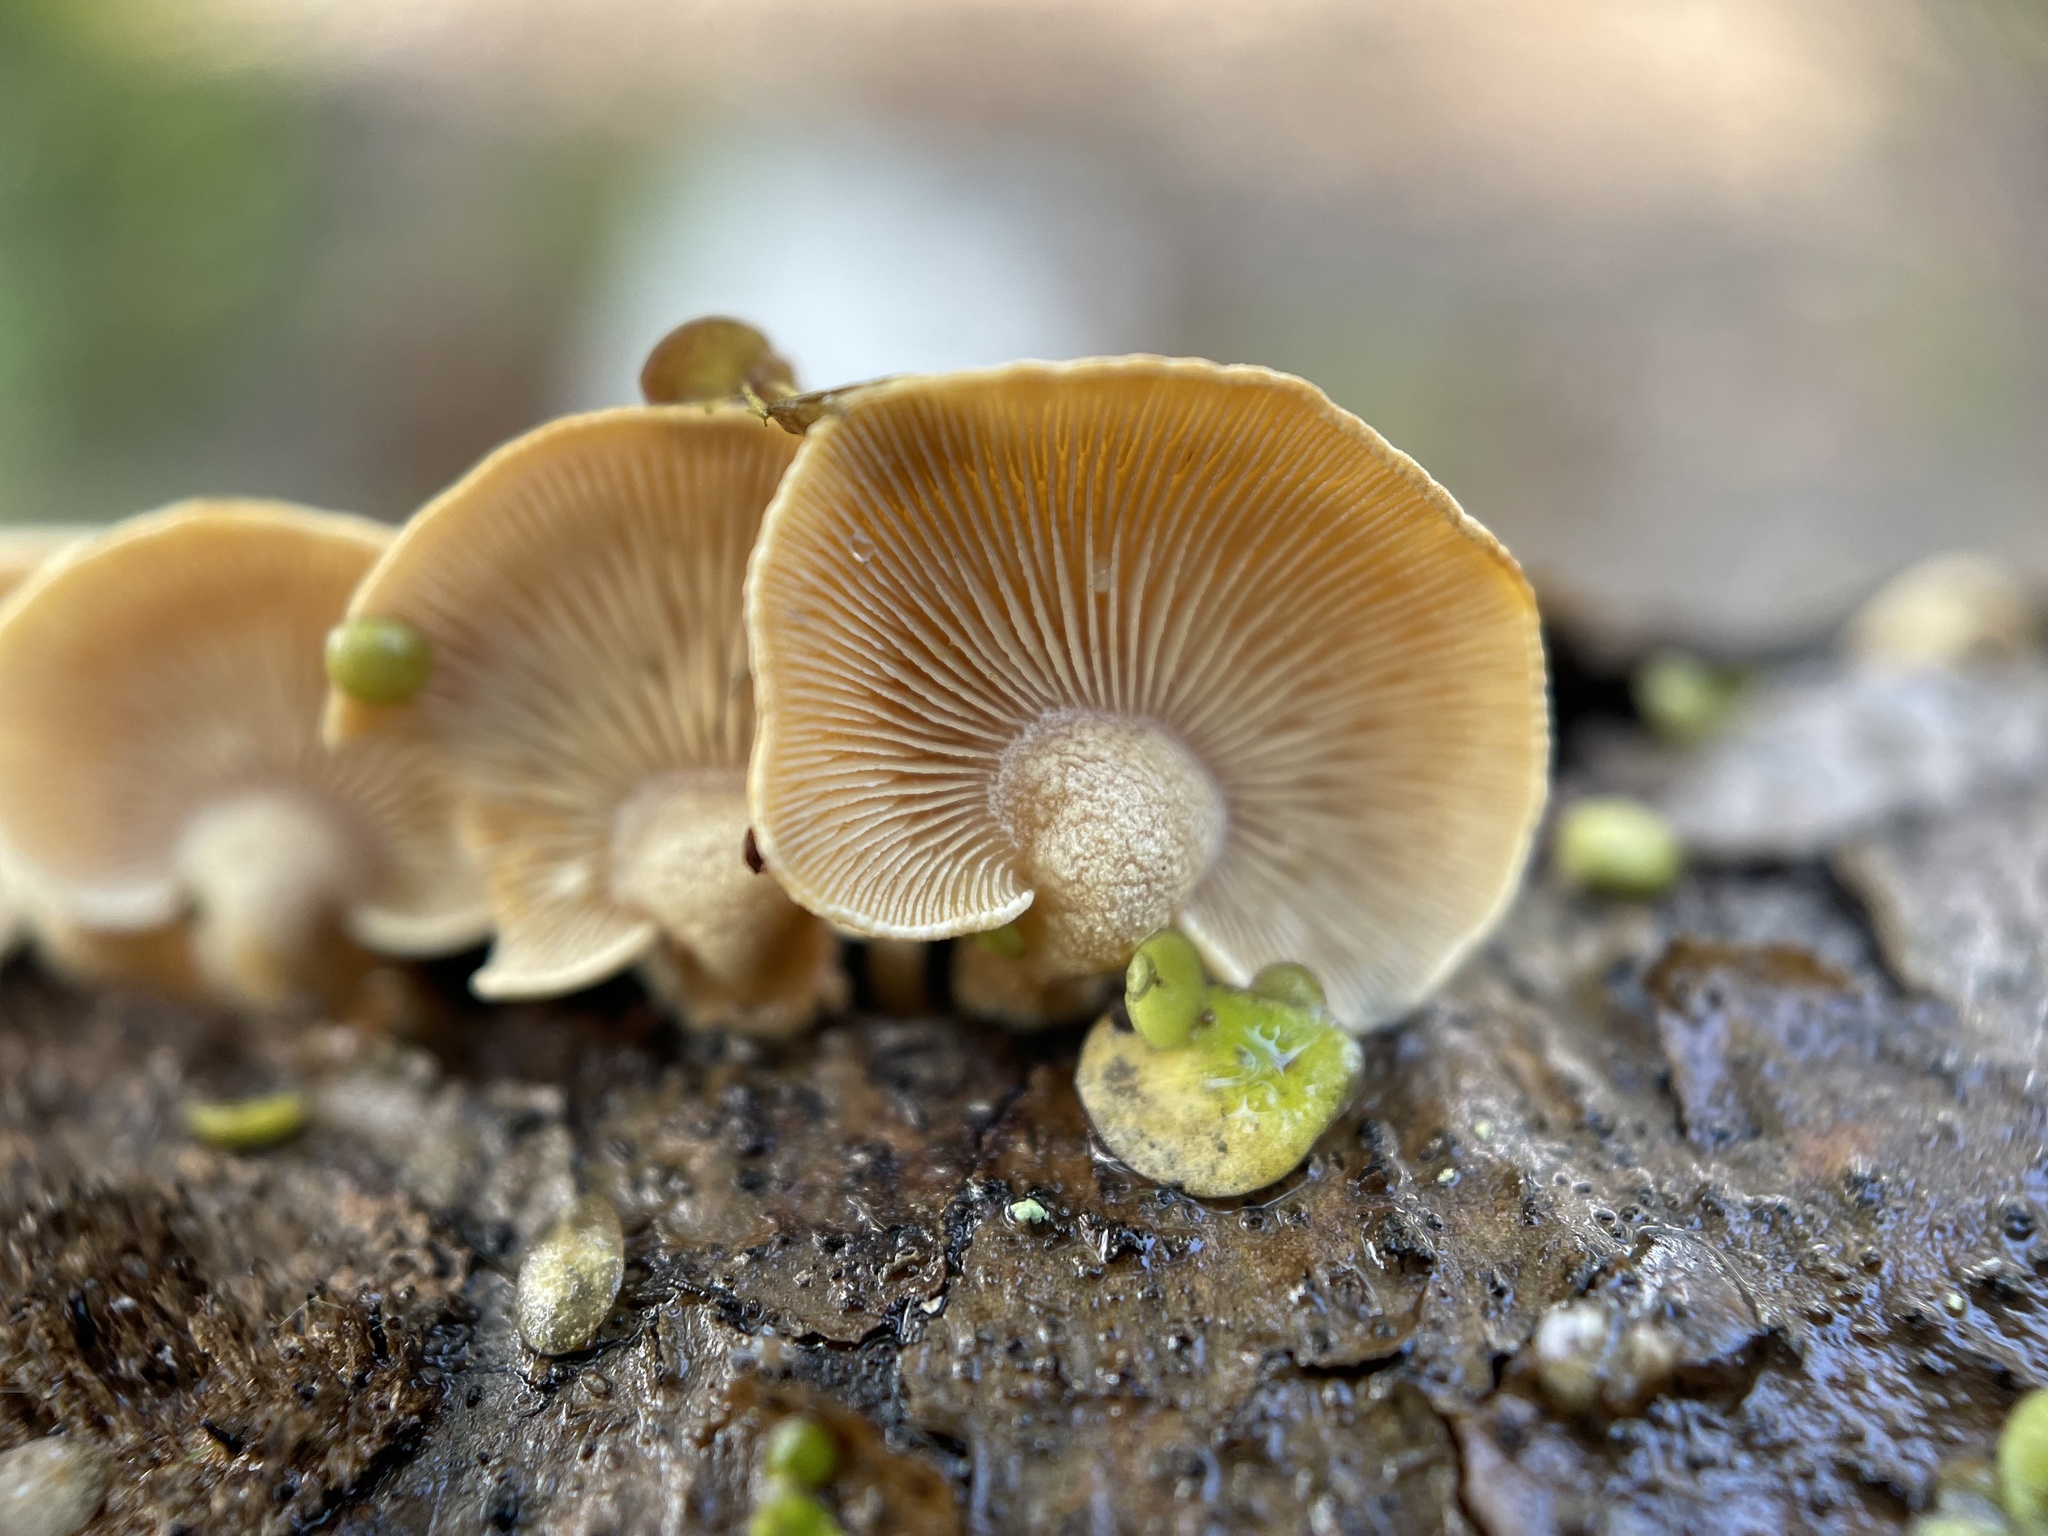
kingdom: Fungi
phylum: Basidiomycota
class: Agaricomycetes
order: Agaricales
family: Mycenaceae
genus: Panellus
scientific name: Panellus stipticus
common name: Bitter oysterling
